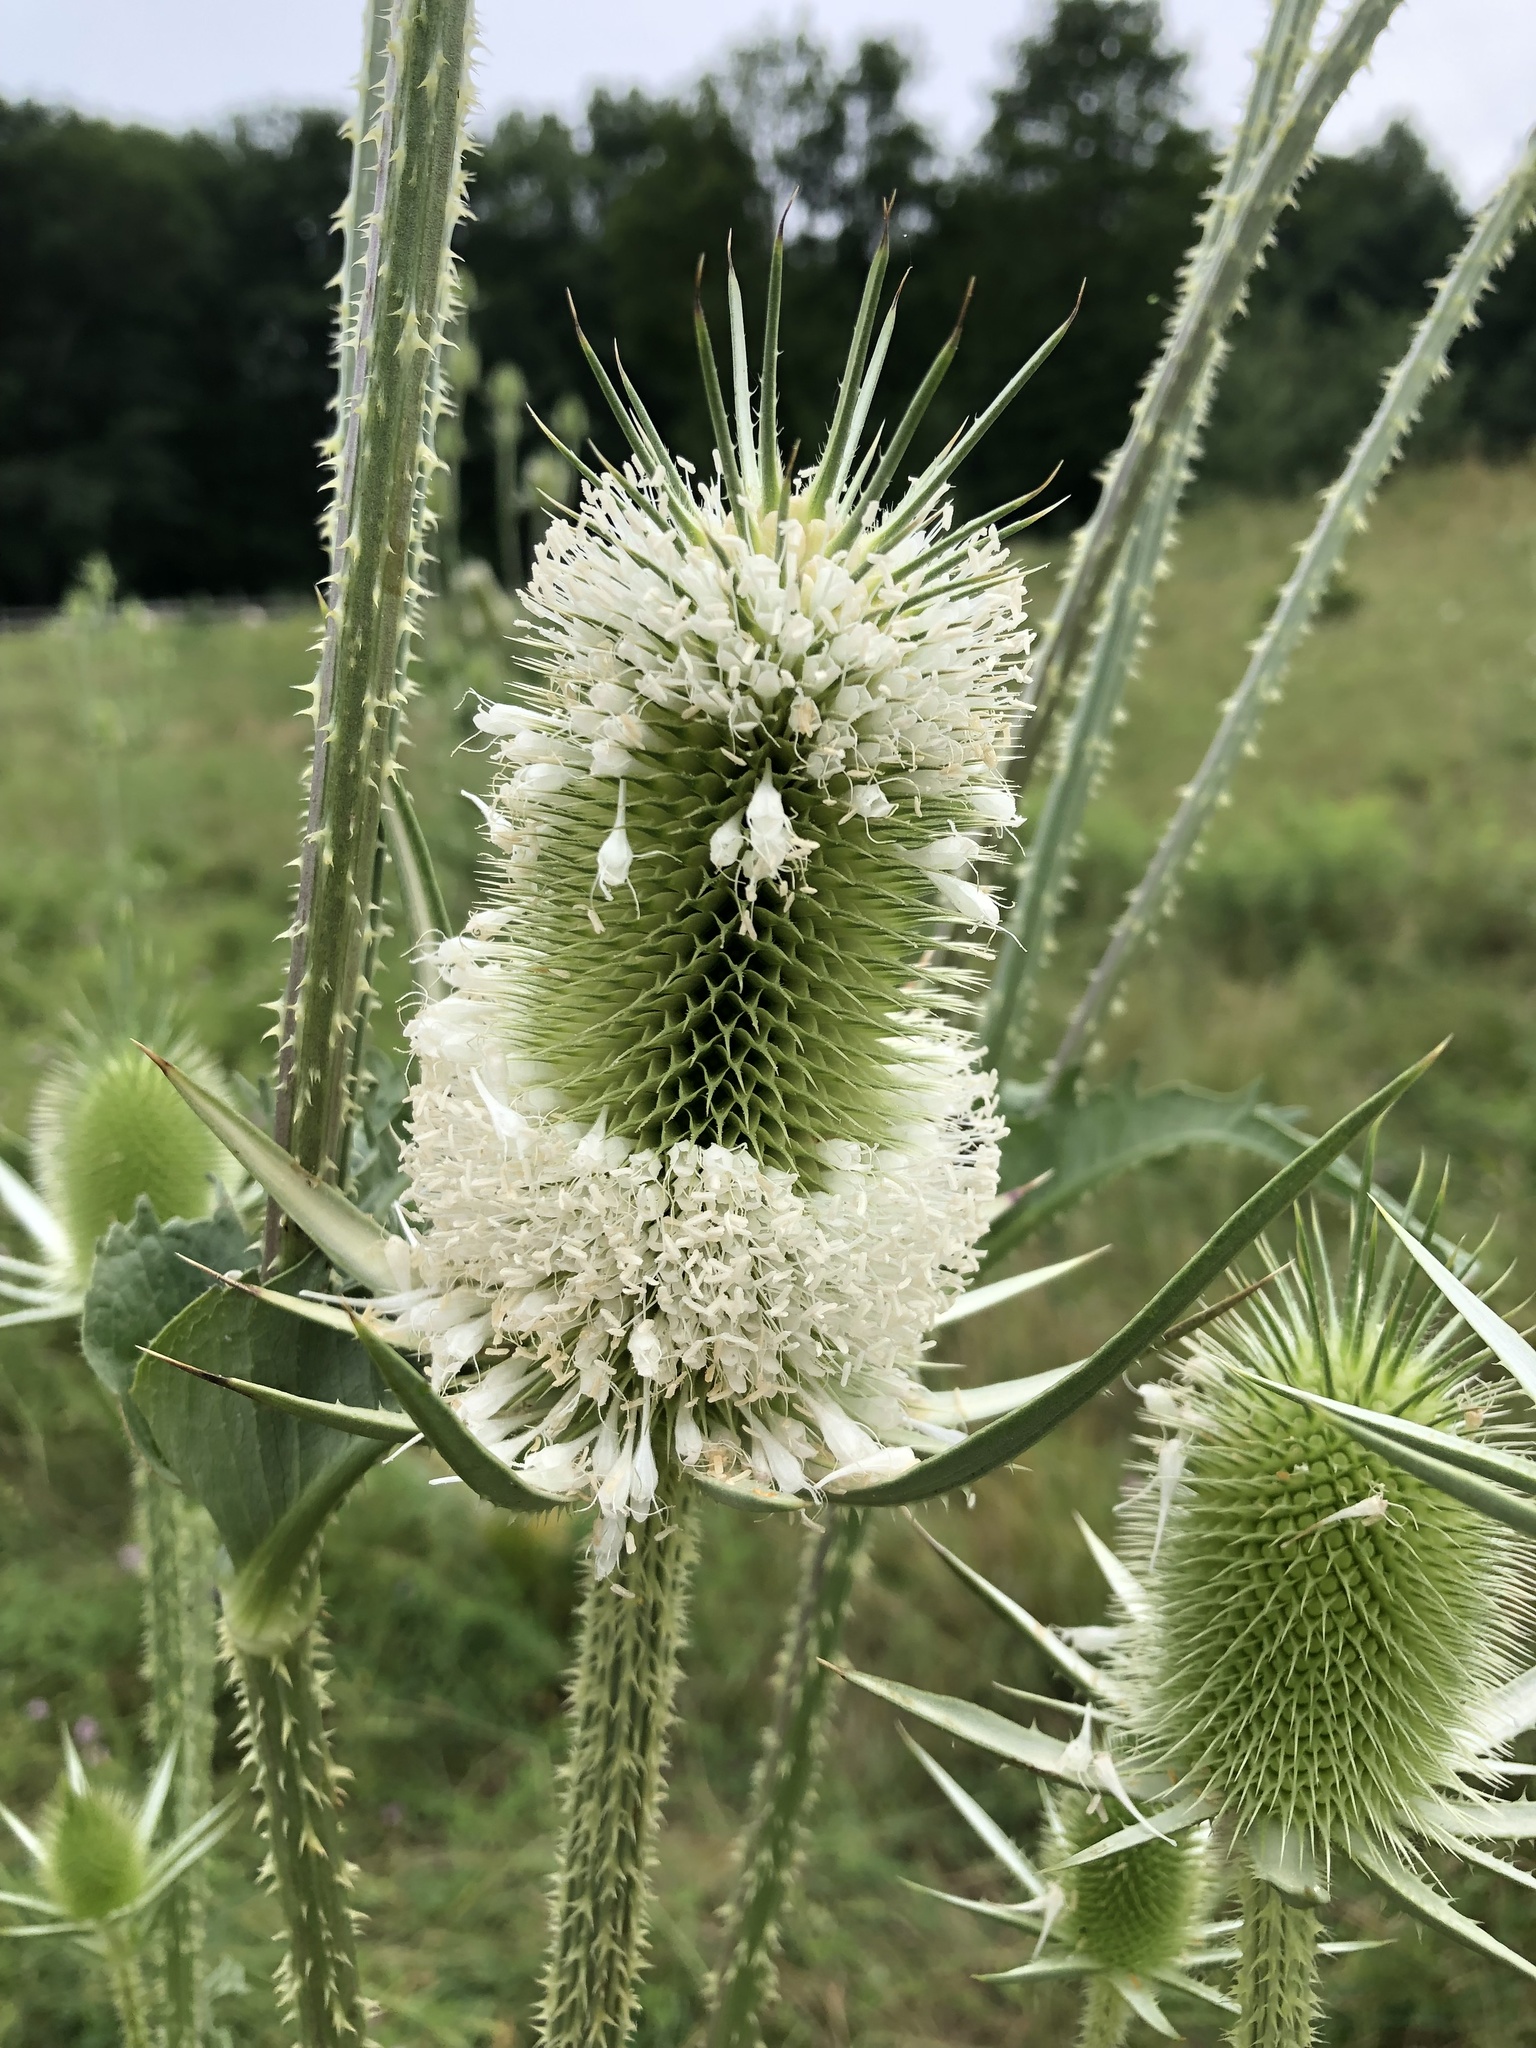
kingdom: Plantae
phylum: Tracheophyta
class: Magnoliopsida
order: Dipsacales
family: Caprifoliaceae
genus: Dipsacus
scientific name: Dipsacus laciniatus
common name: Cut-leaved teasel
